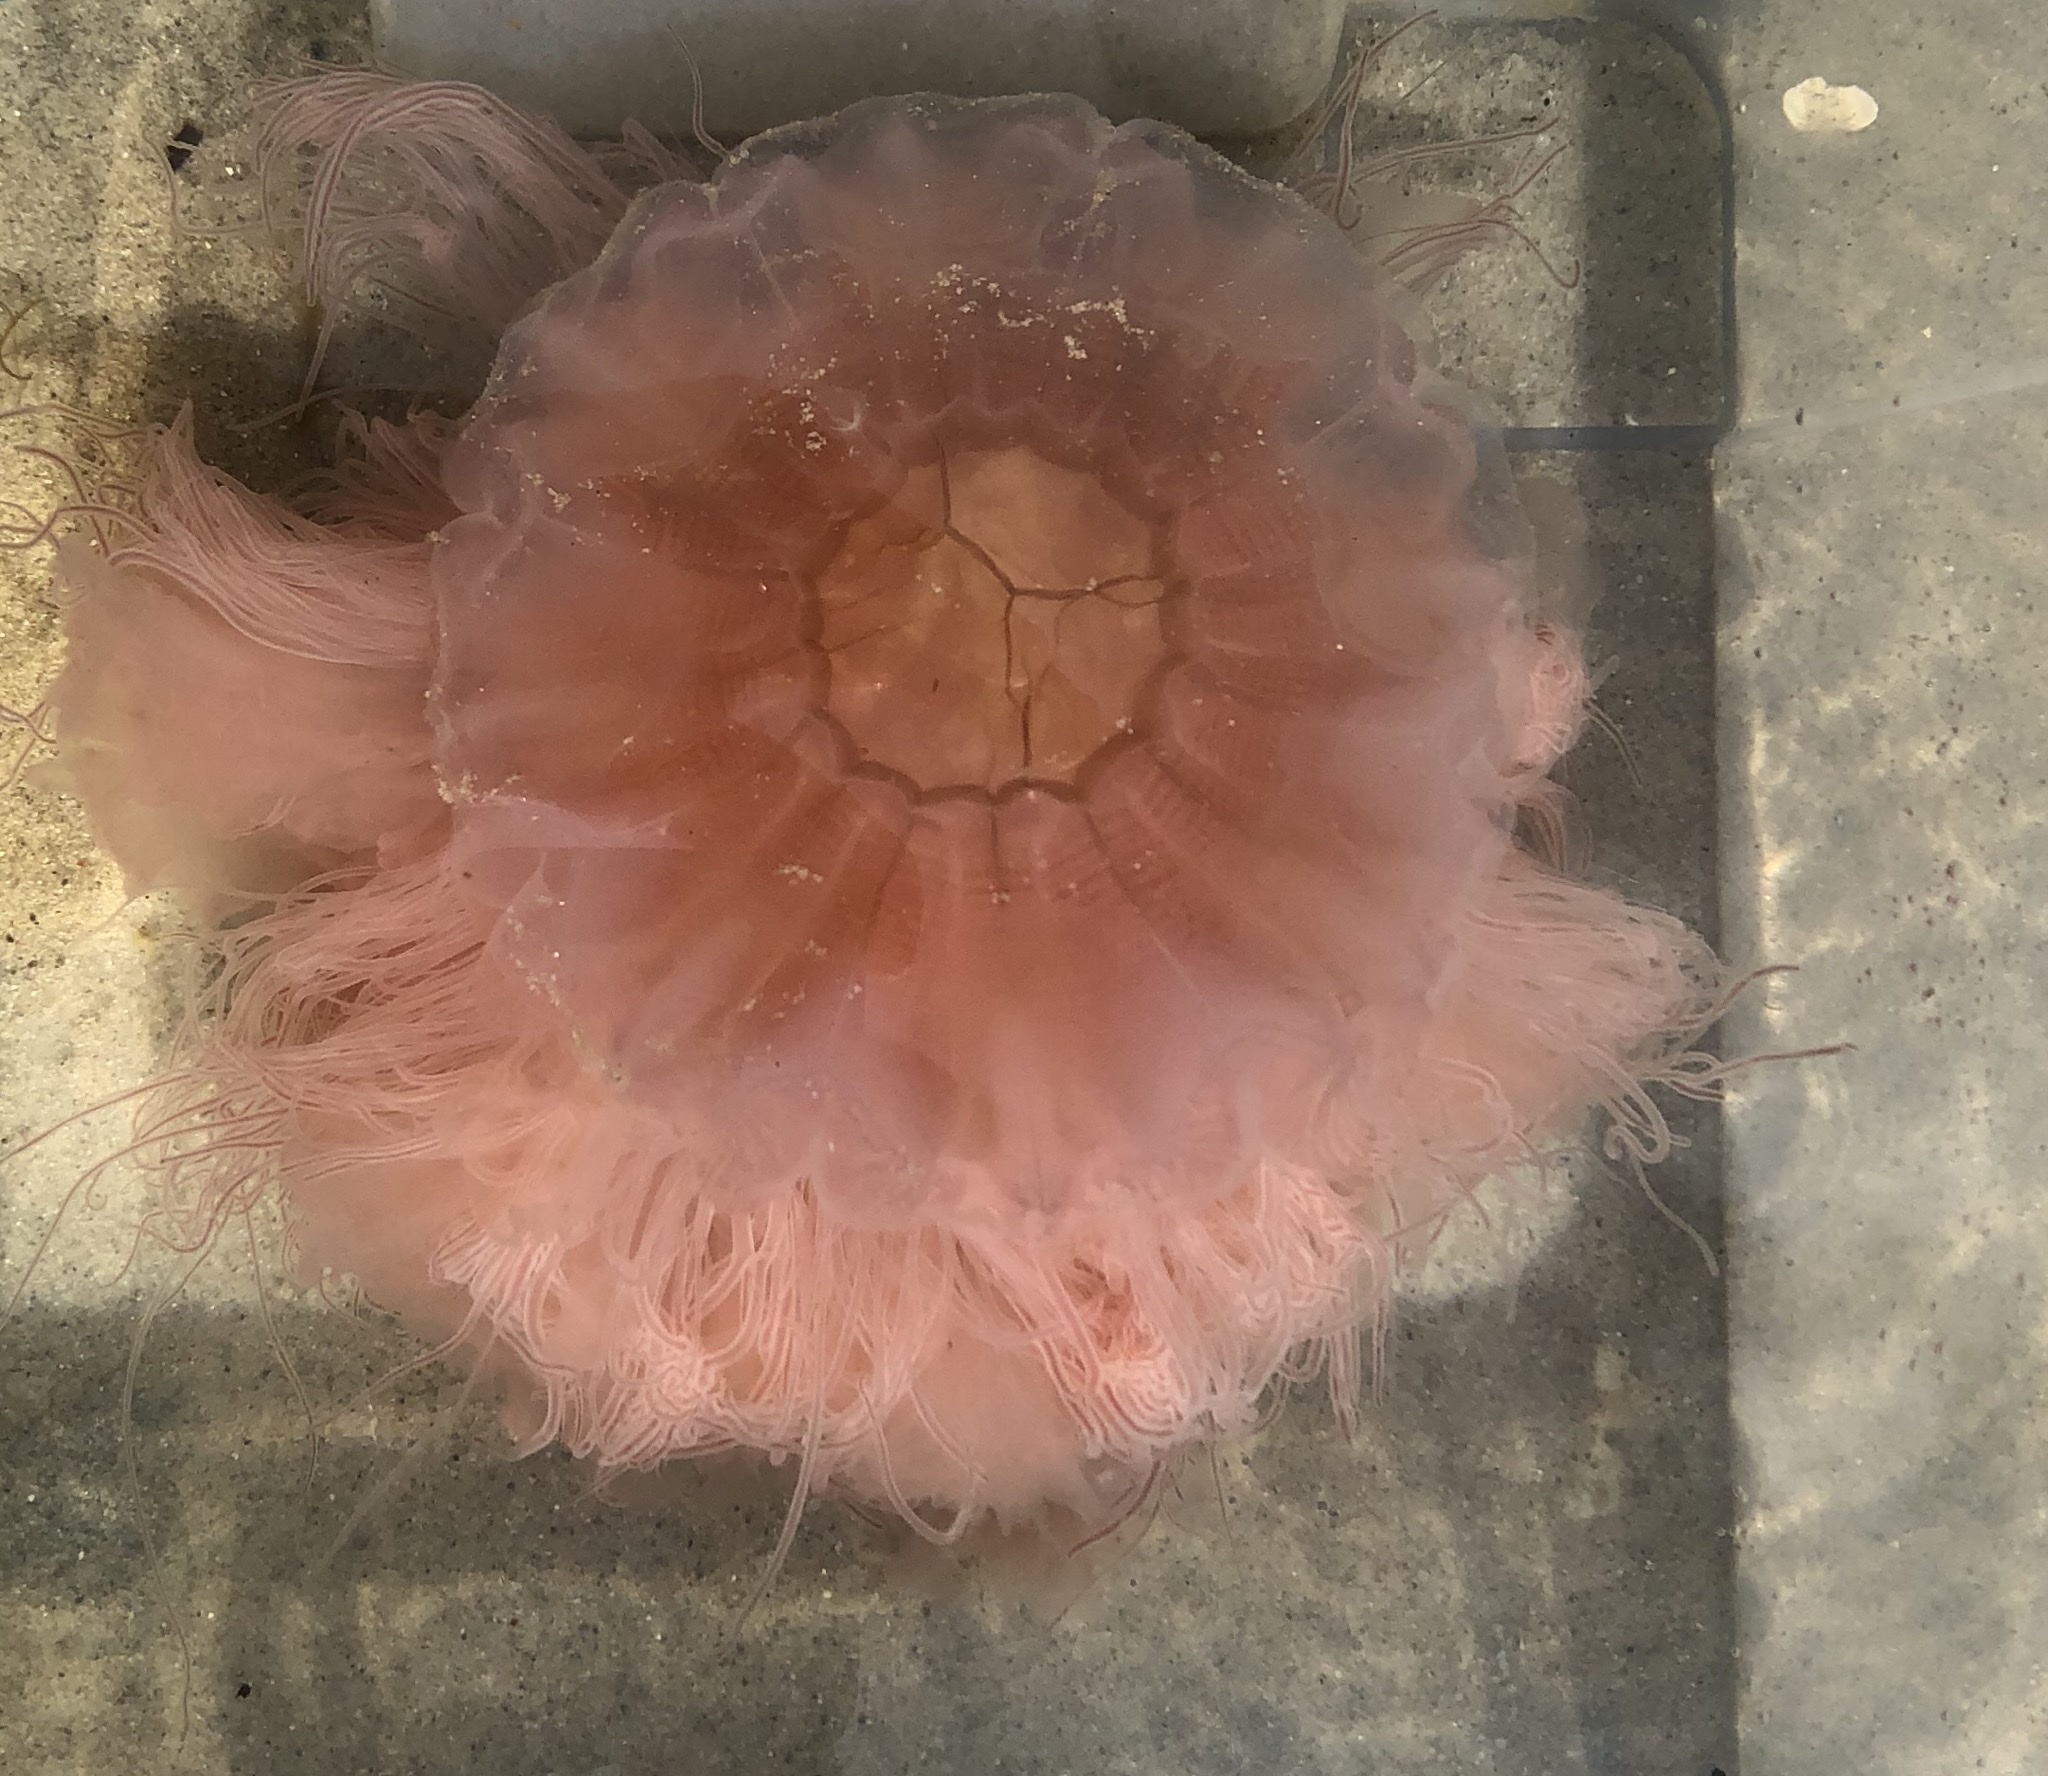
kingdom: Animalia
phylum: Cnidaria
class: Scyphozoa
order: Semaeostomeae
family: Cyaneidae
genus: Cyanea
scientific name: Cyanea capillata
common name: Lion's mane jellyfish
